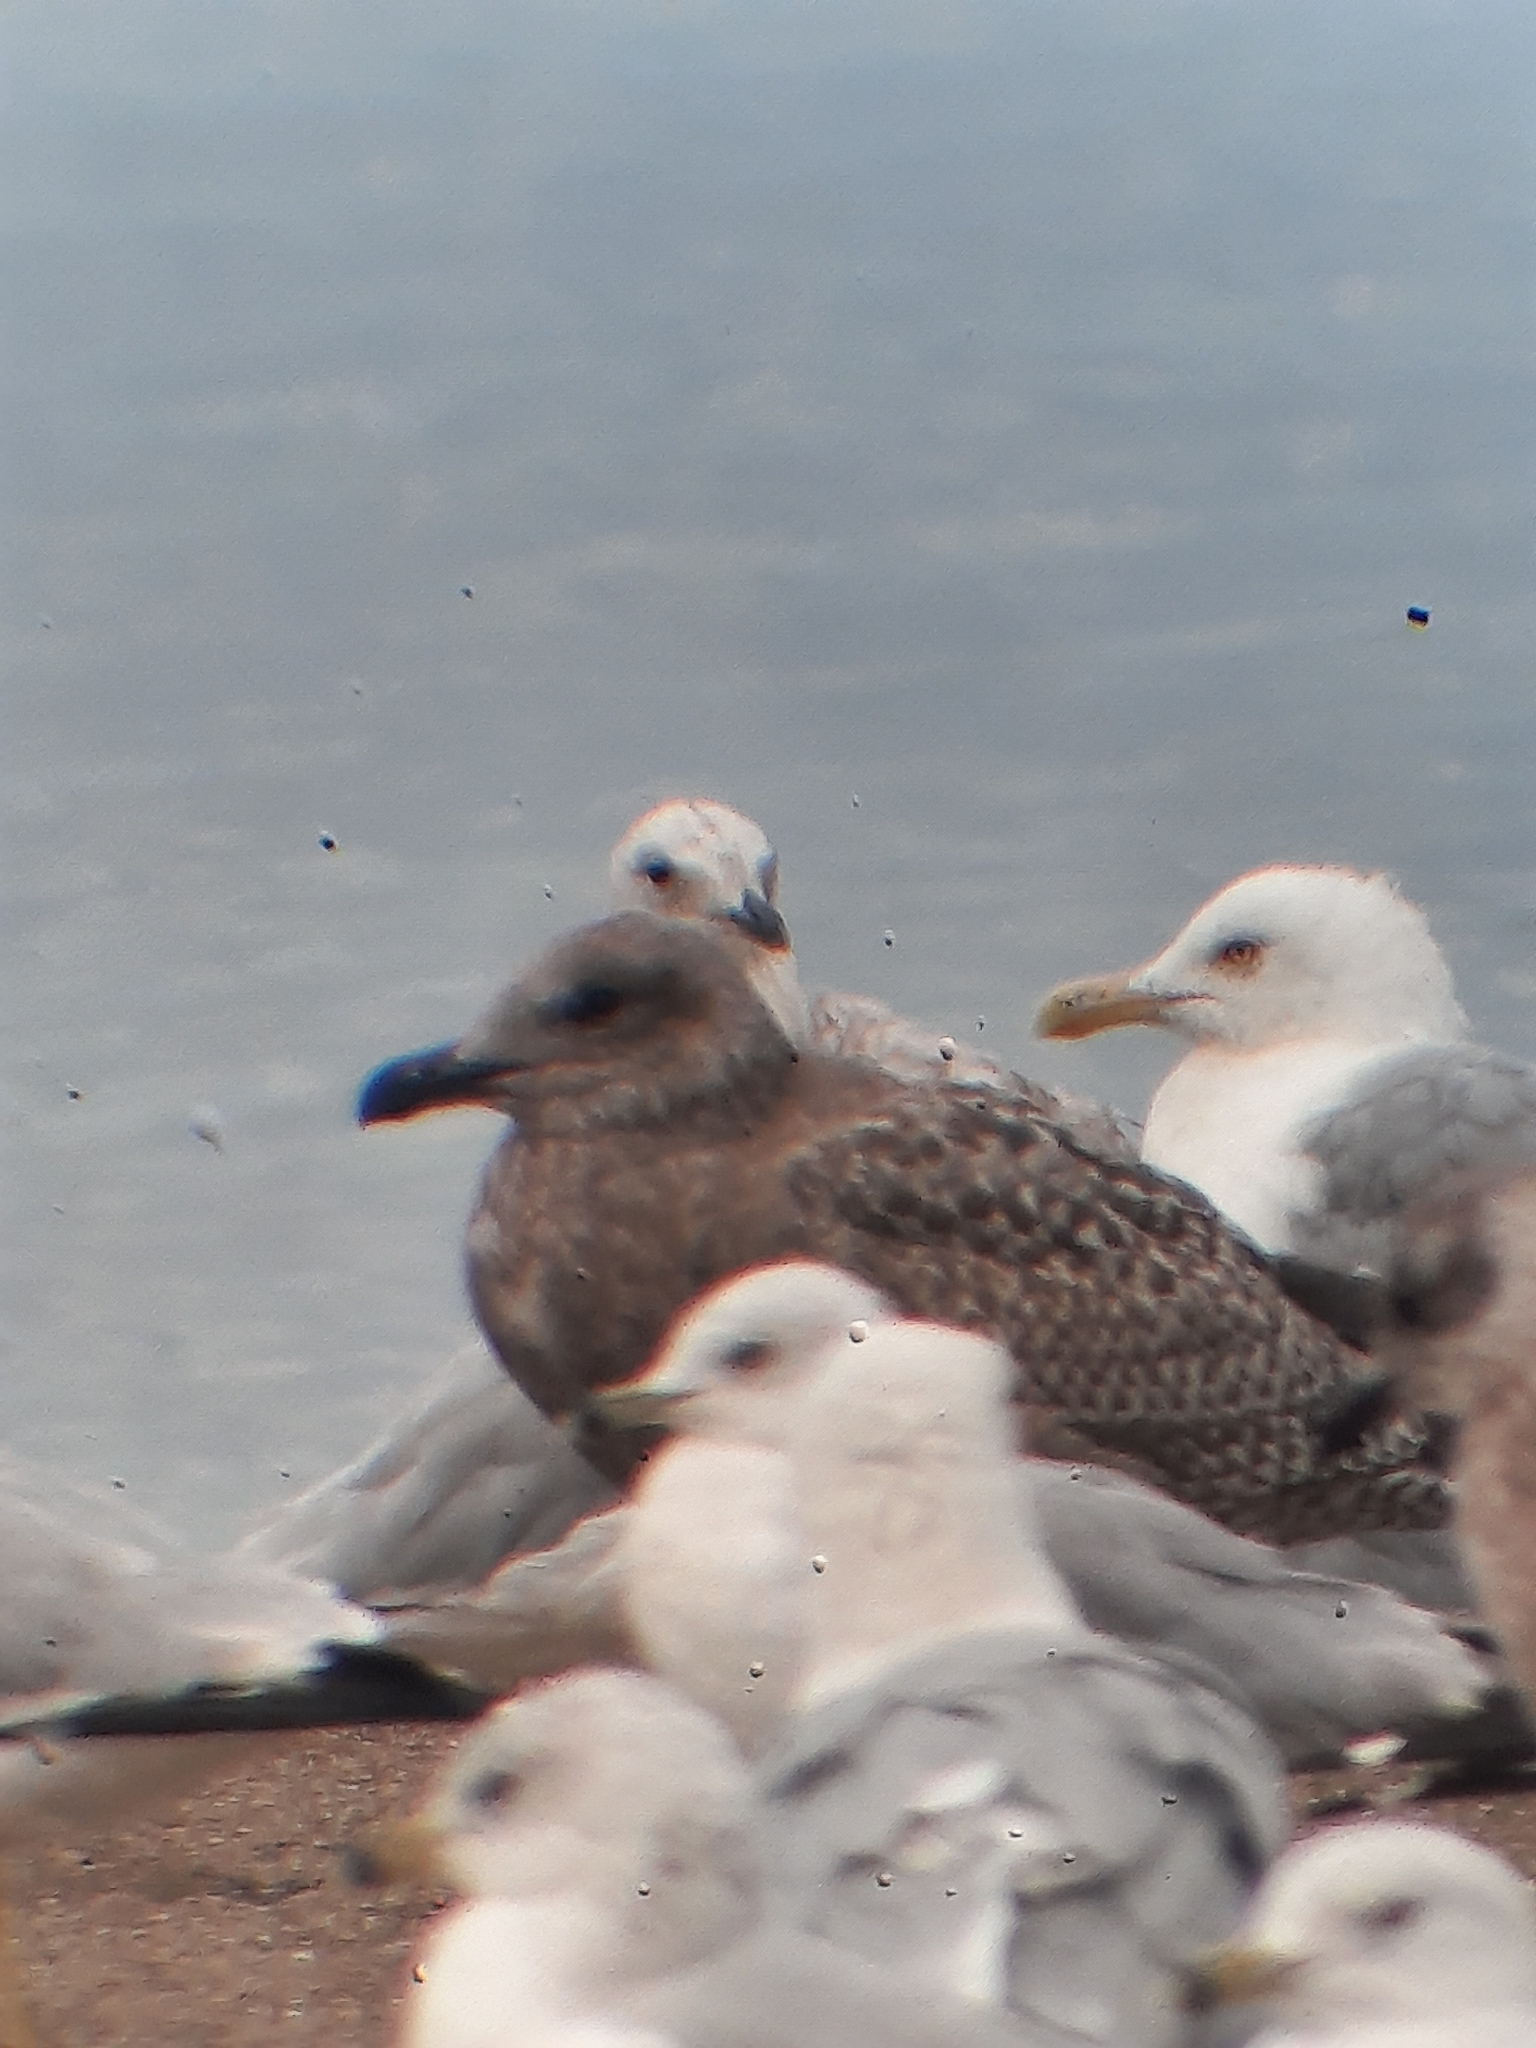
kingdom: Animalia
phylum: Chordata
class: Aves
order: Charadriiformes
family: Laridae
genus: Larus
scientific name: Larus argentatus
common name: Herring gull
